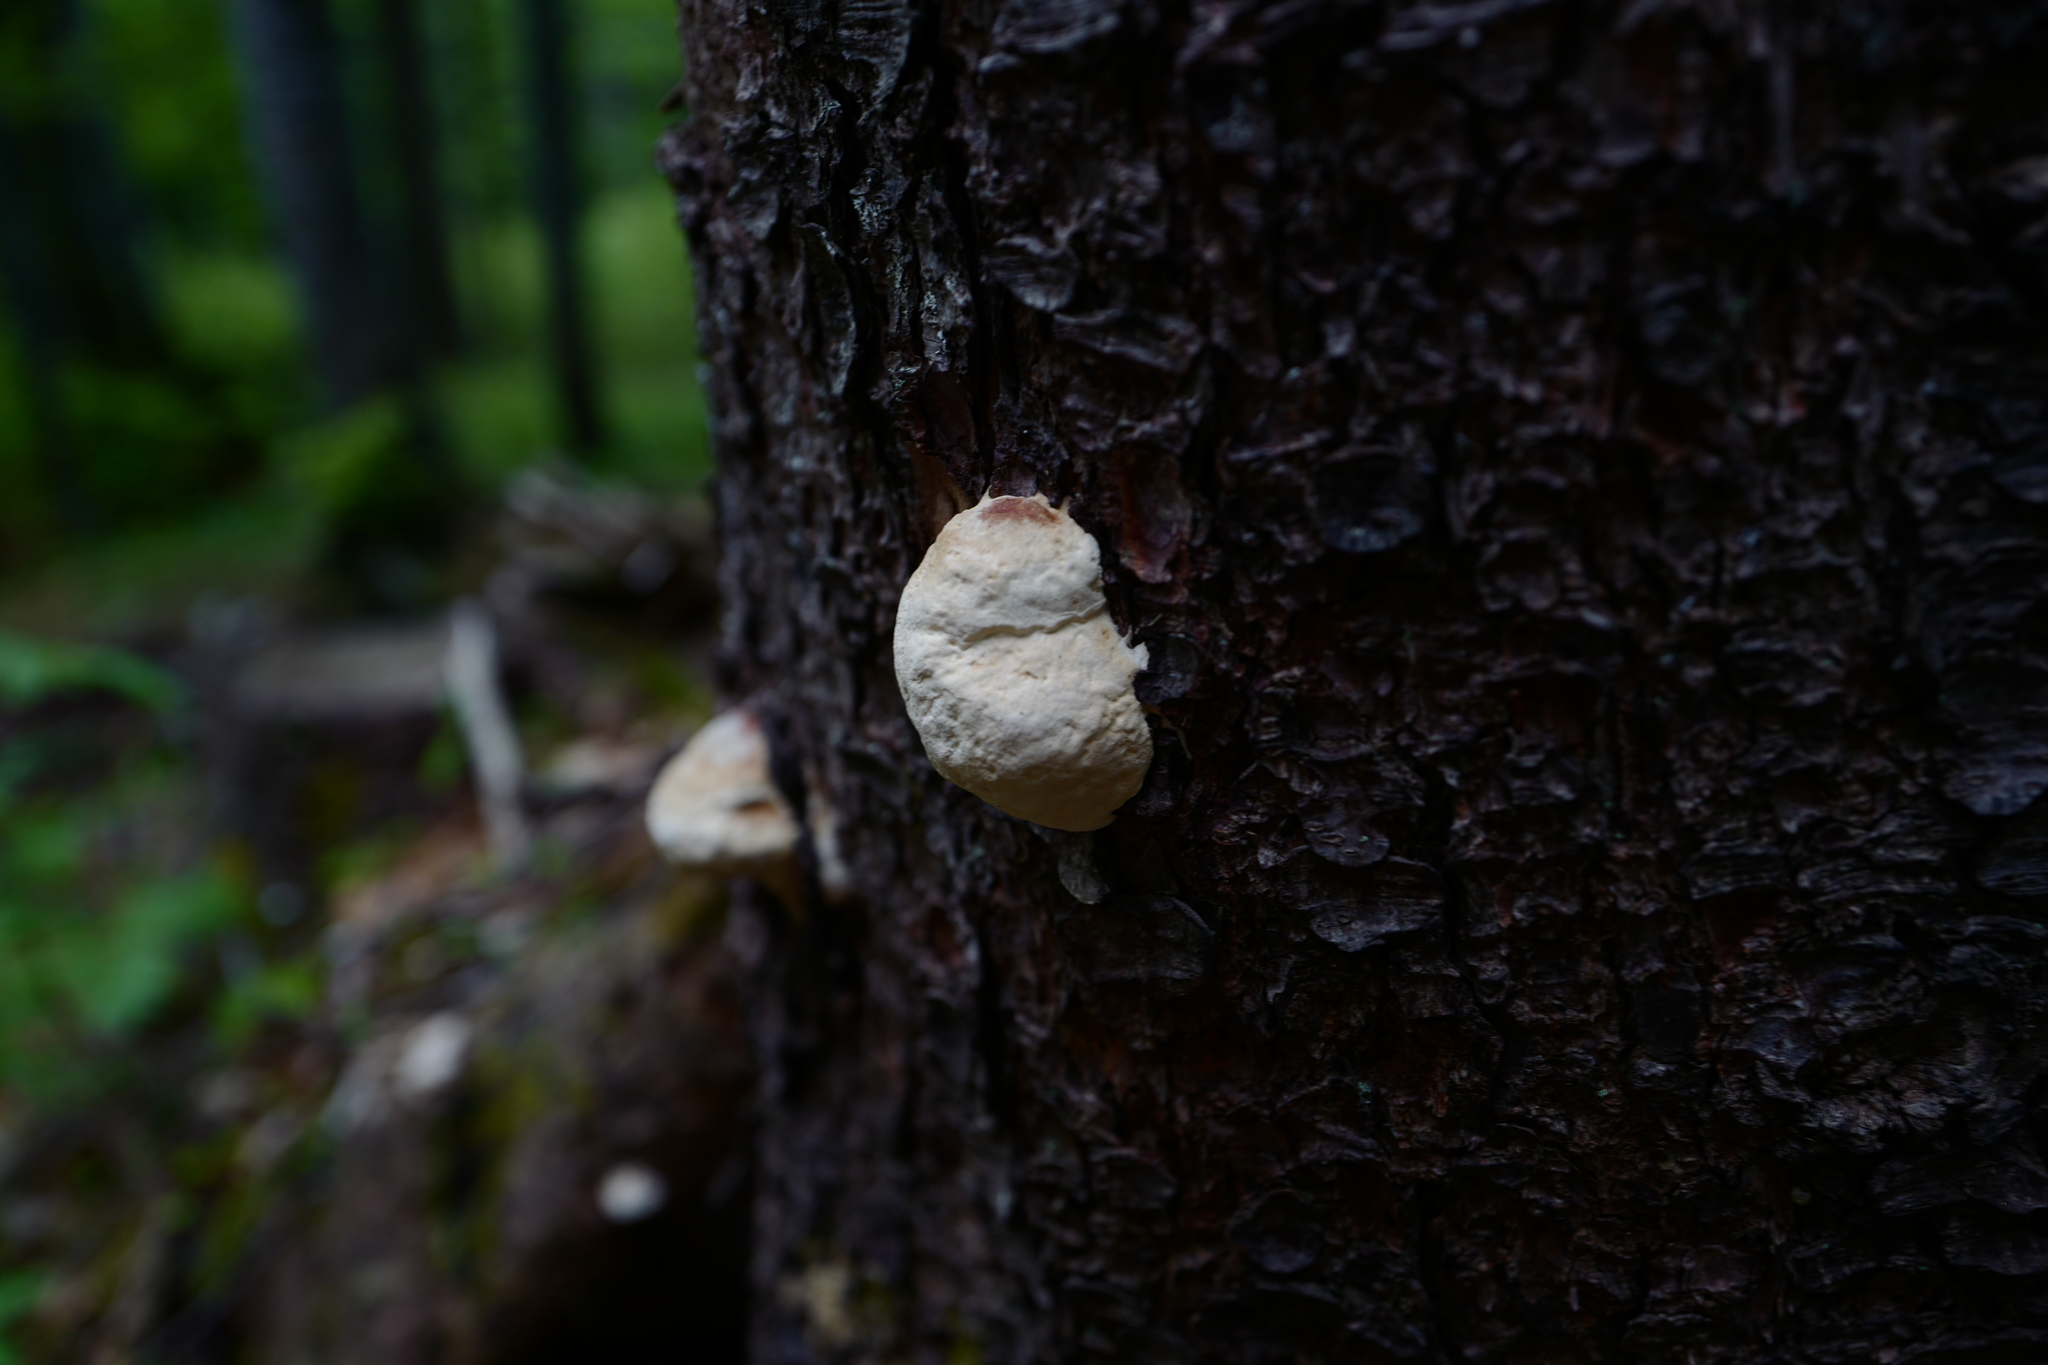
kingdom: Fungi
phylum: Basidiomycota
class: Agaricomycetes
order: Polyporales
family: Fomitopsidaceae
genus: Fomitopsis
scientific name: Fomitopsis pinicola
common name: Red-belted bracket
